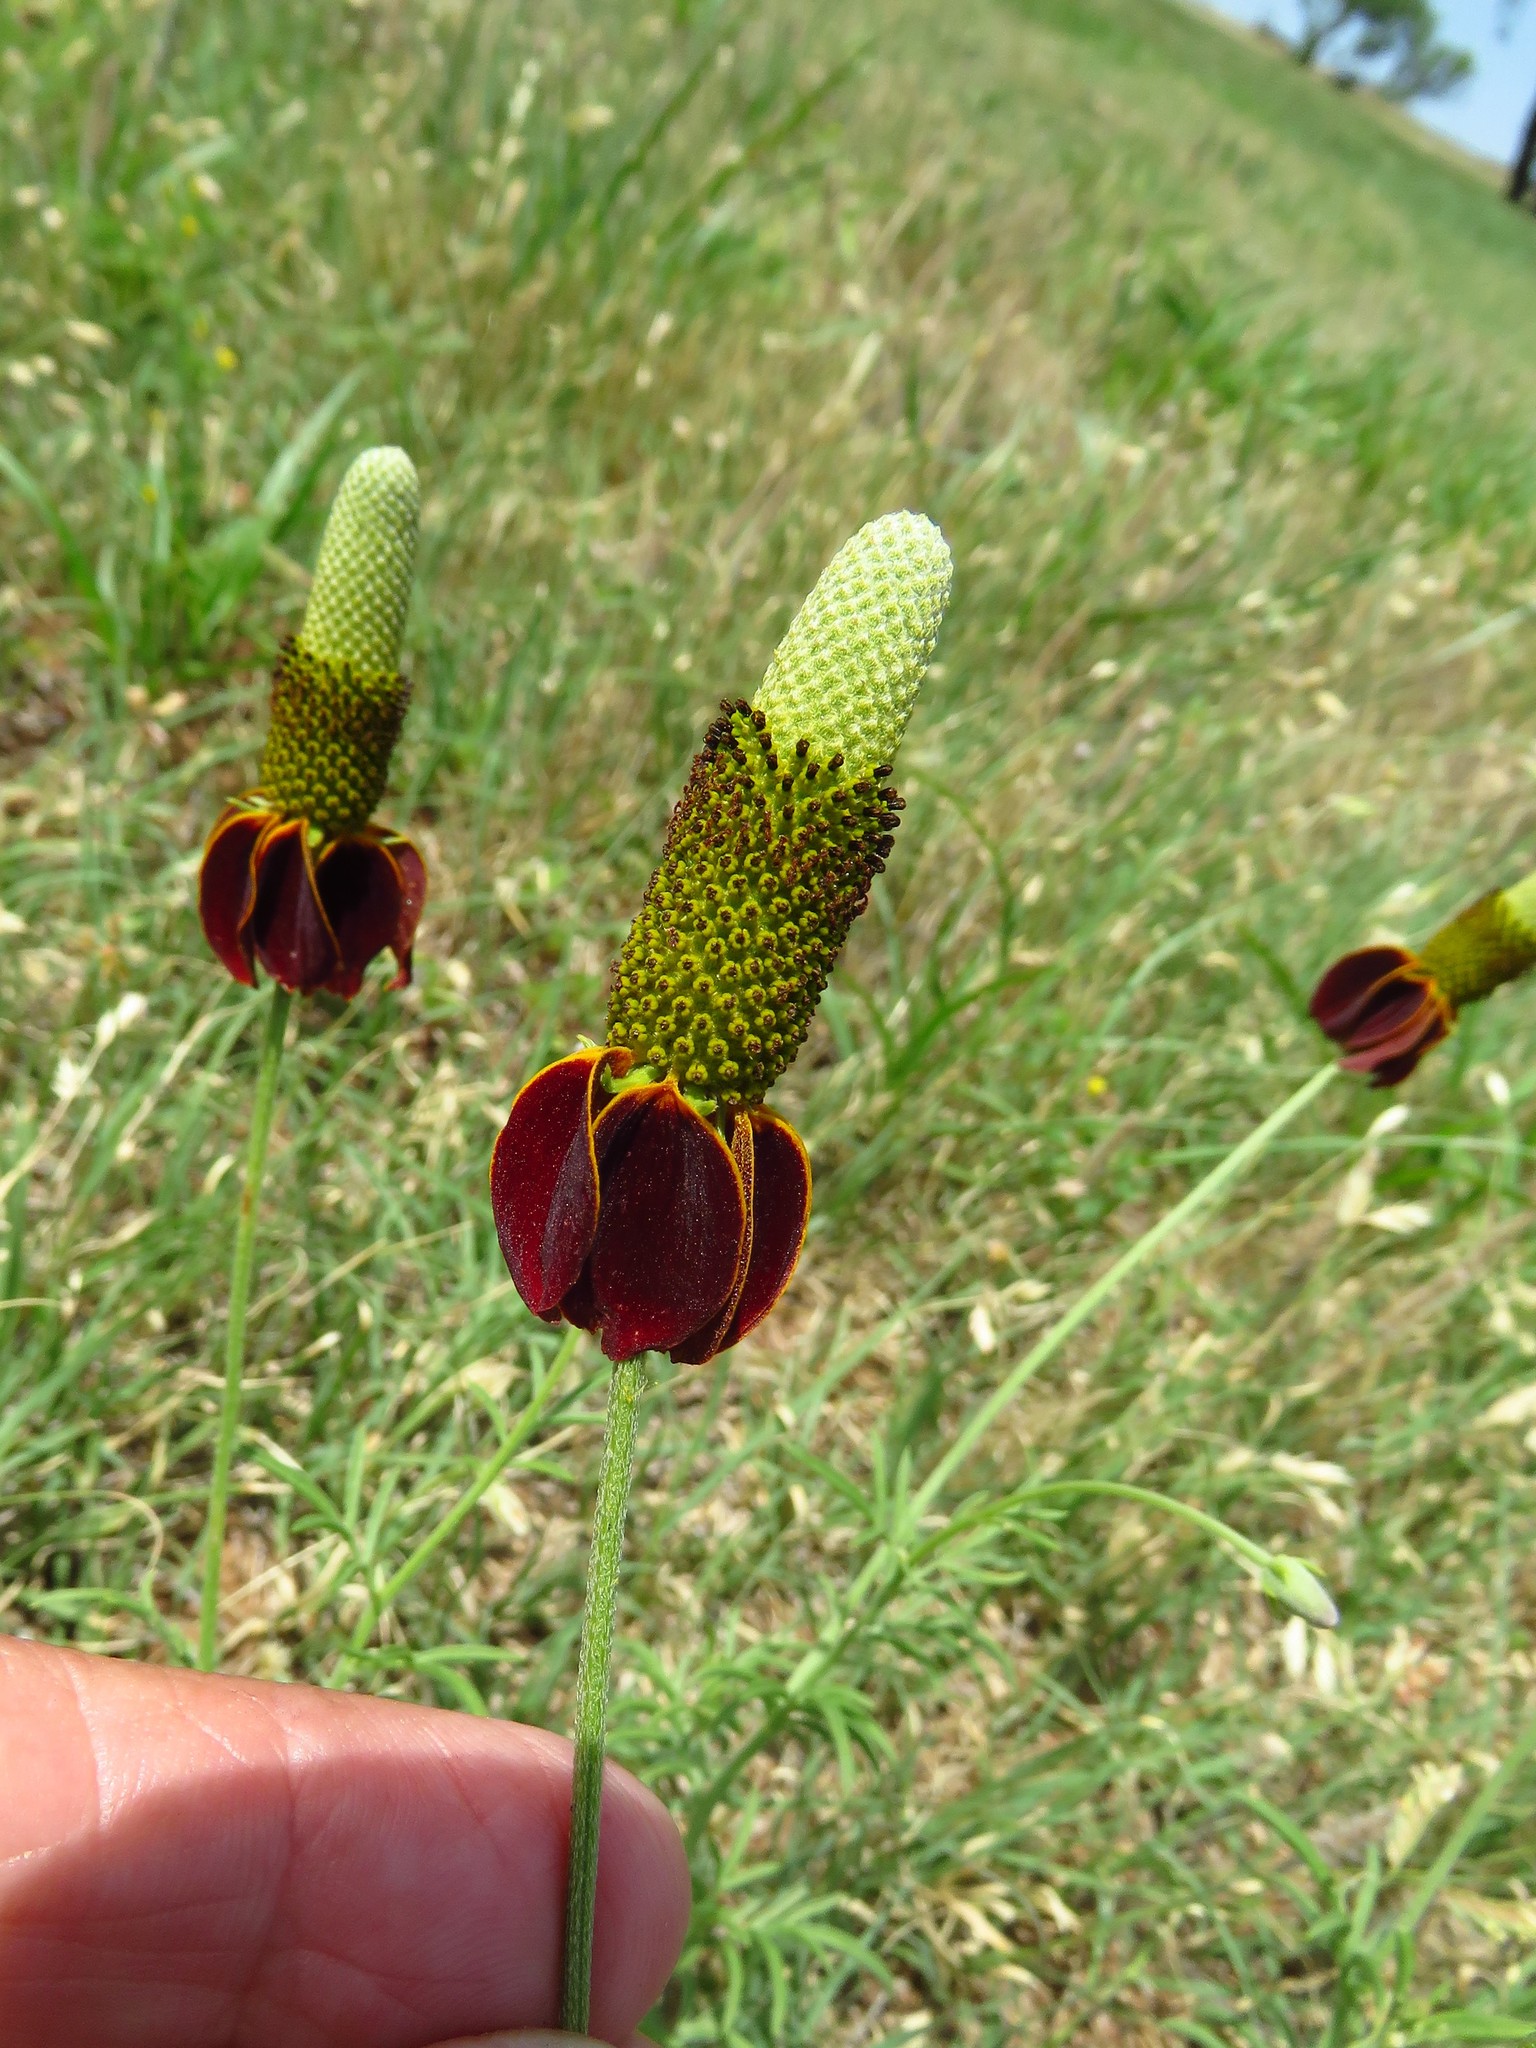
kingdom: Plantae
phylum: Tracheophyta
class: Magnoliopsida
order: Asterales
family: Asteraceae
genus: Ratibida
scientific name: Ratibida columnifera
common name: Prairie coneflower
